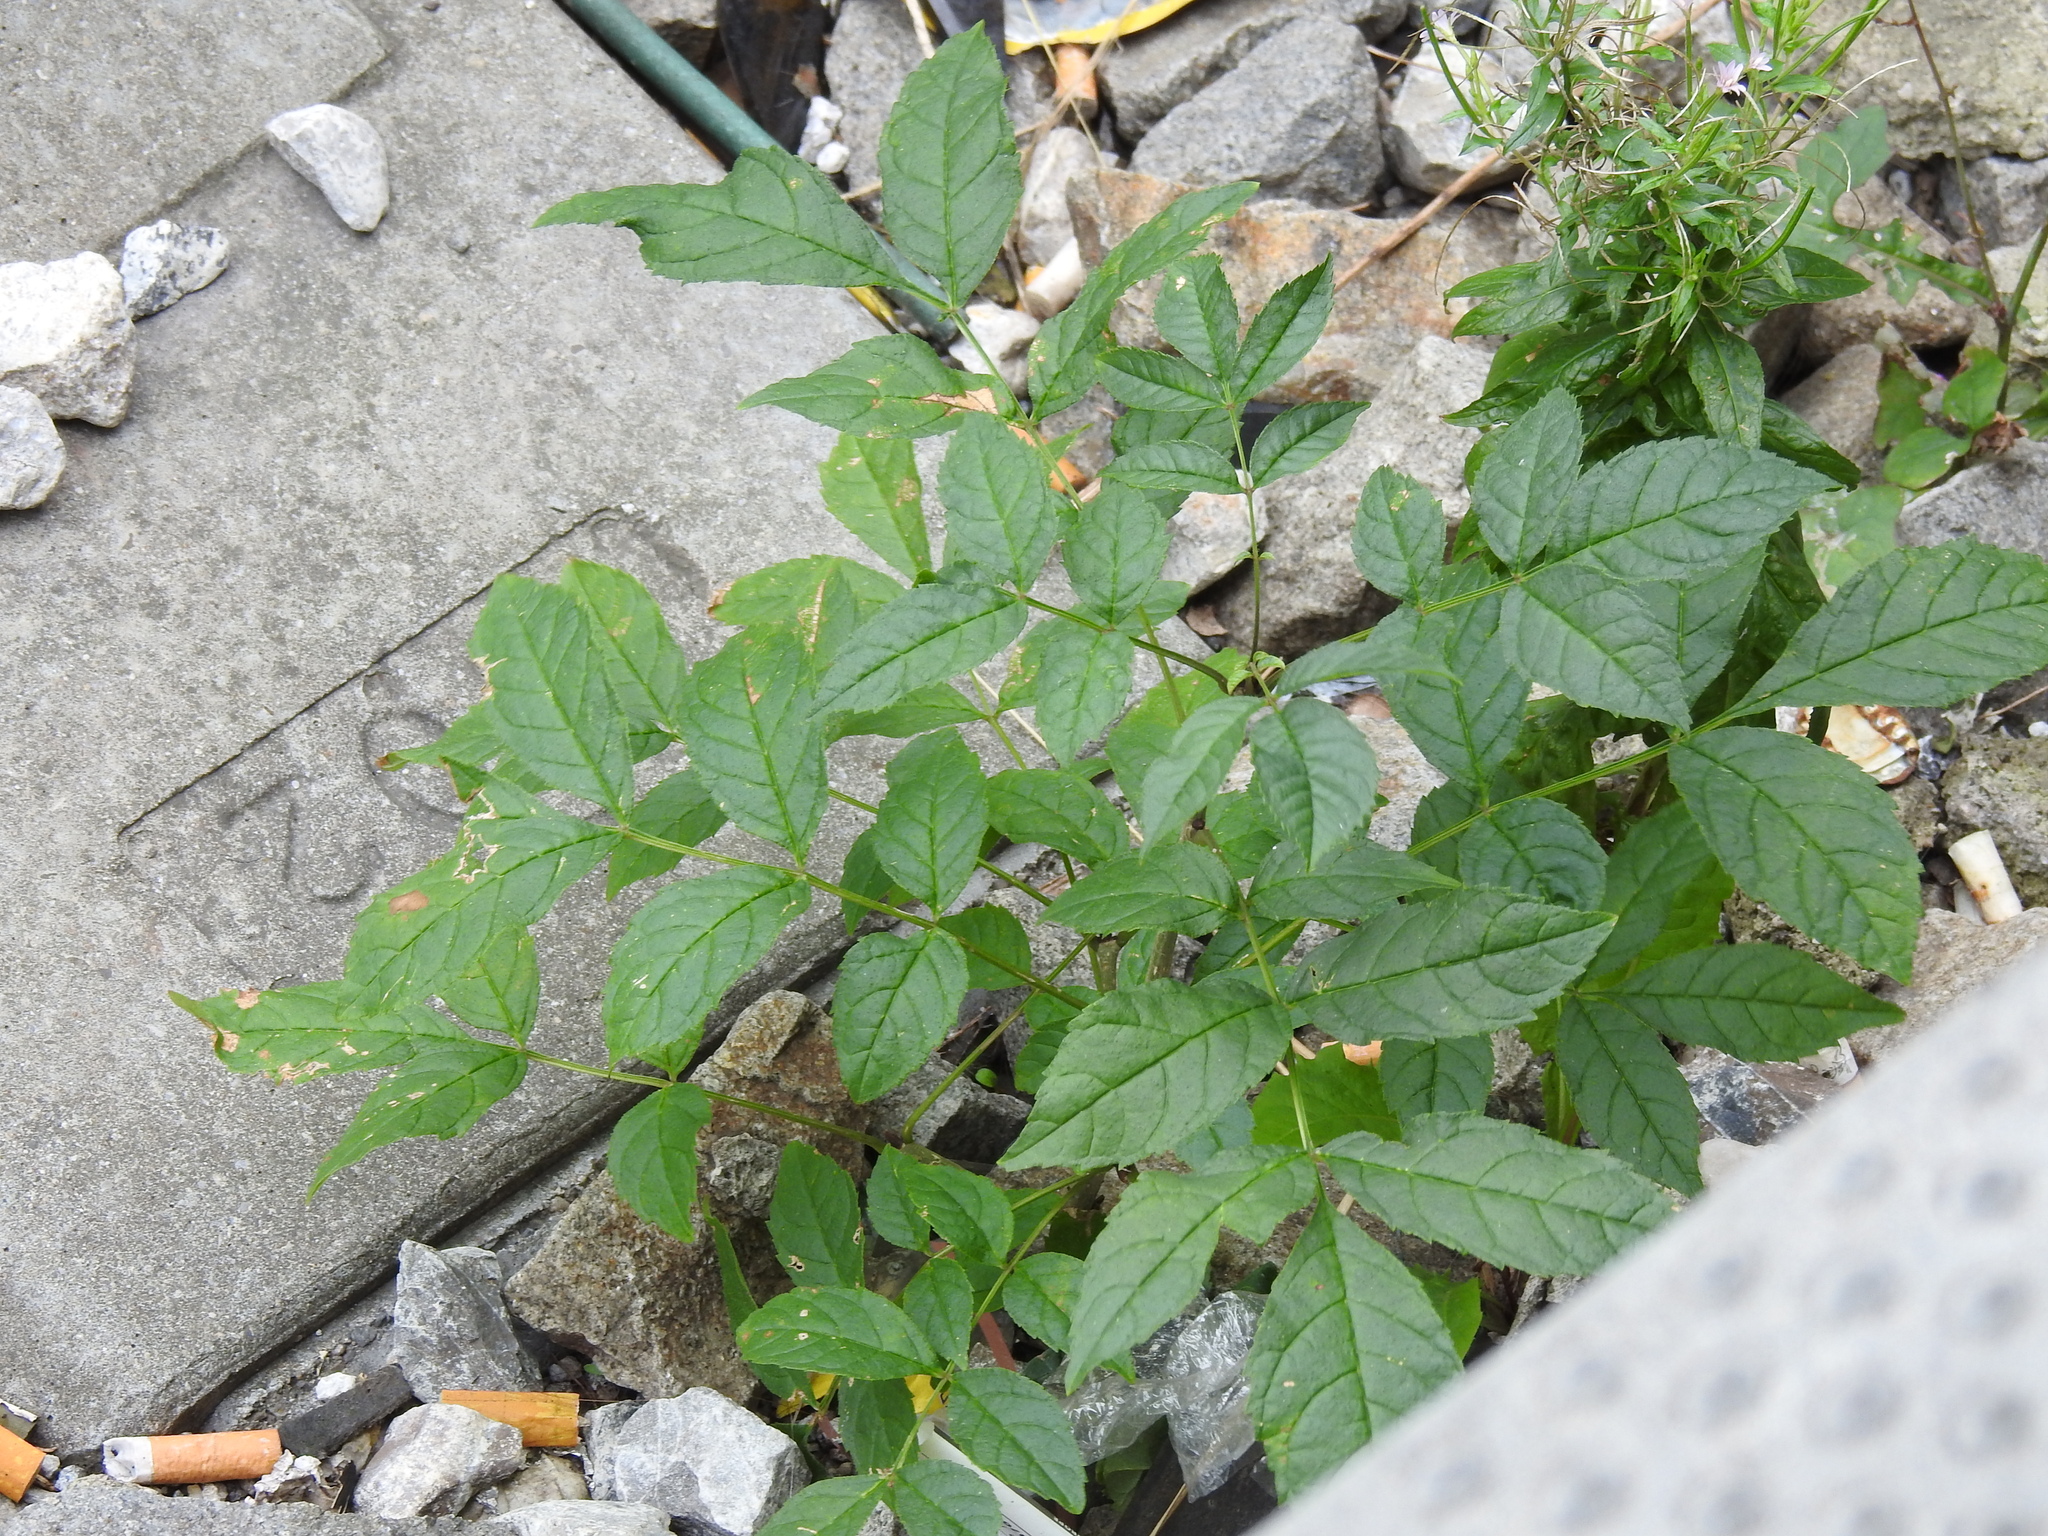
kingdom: Plantae
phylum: Tracheophyta
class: Magnoliopsida
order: Lamiales
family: Oleaceae
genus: Fraxinus
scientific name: Fraxinus excelsior
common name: European ash
